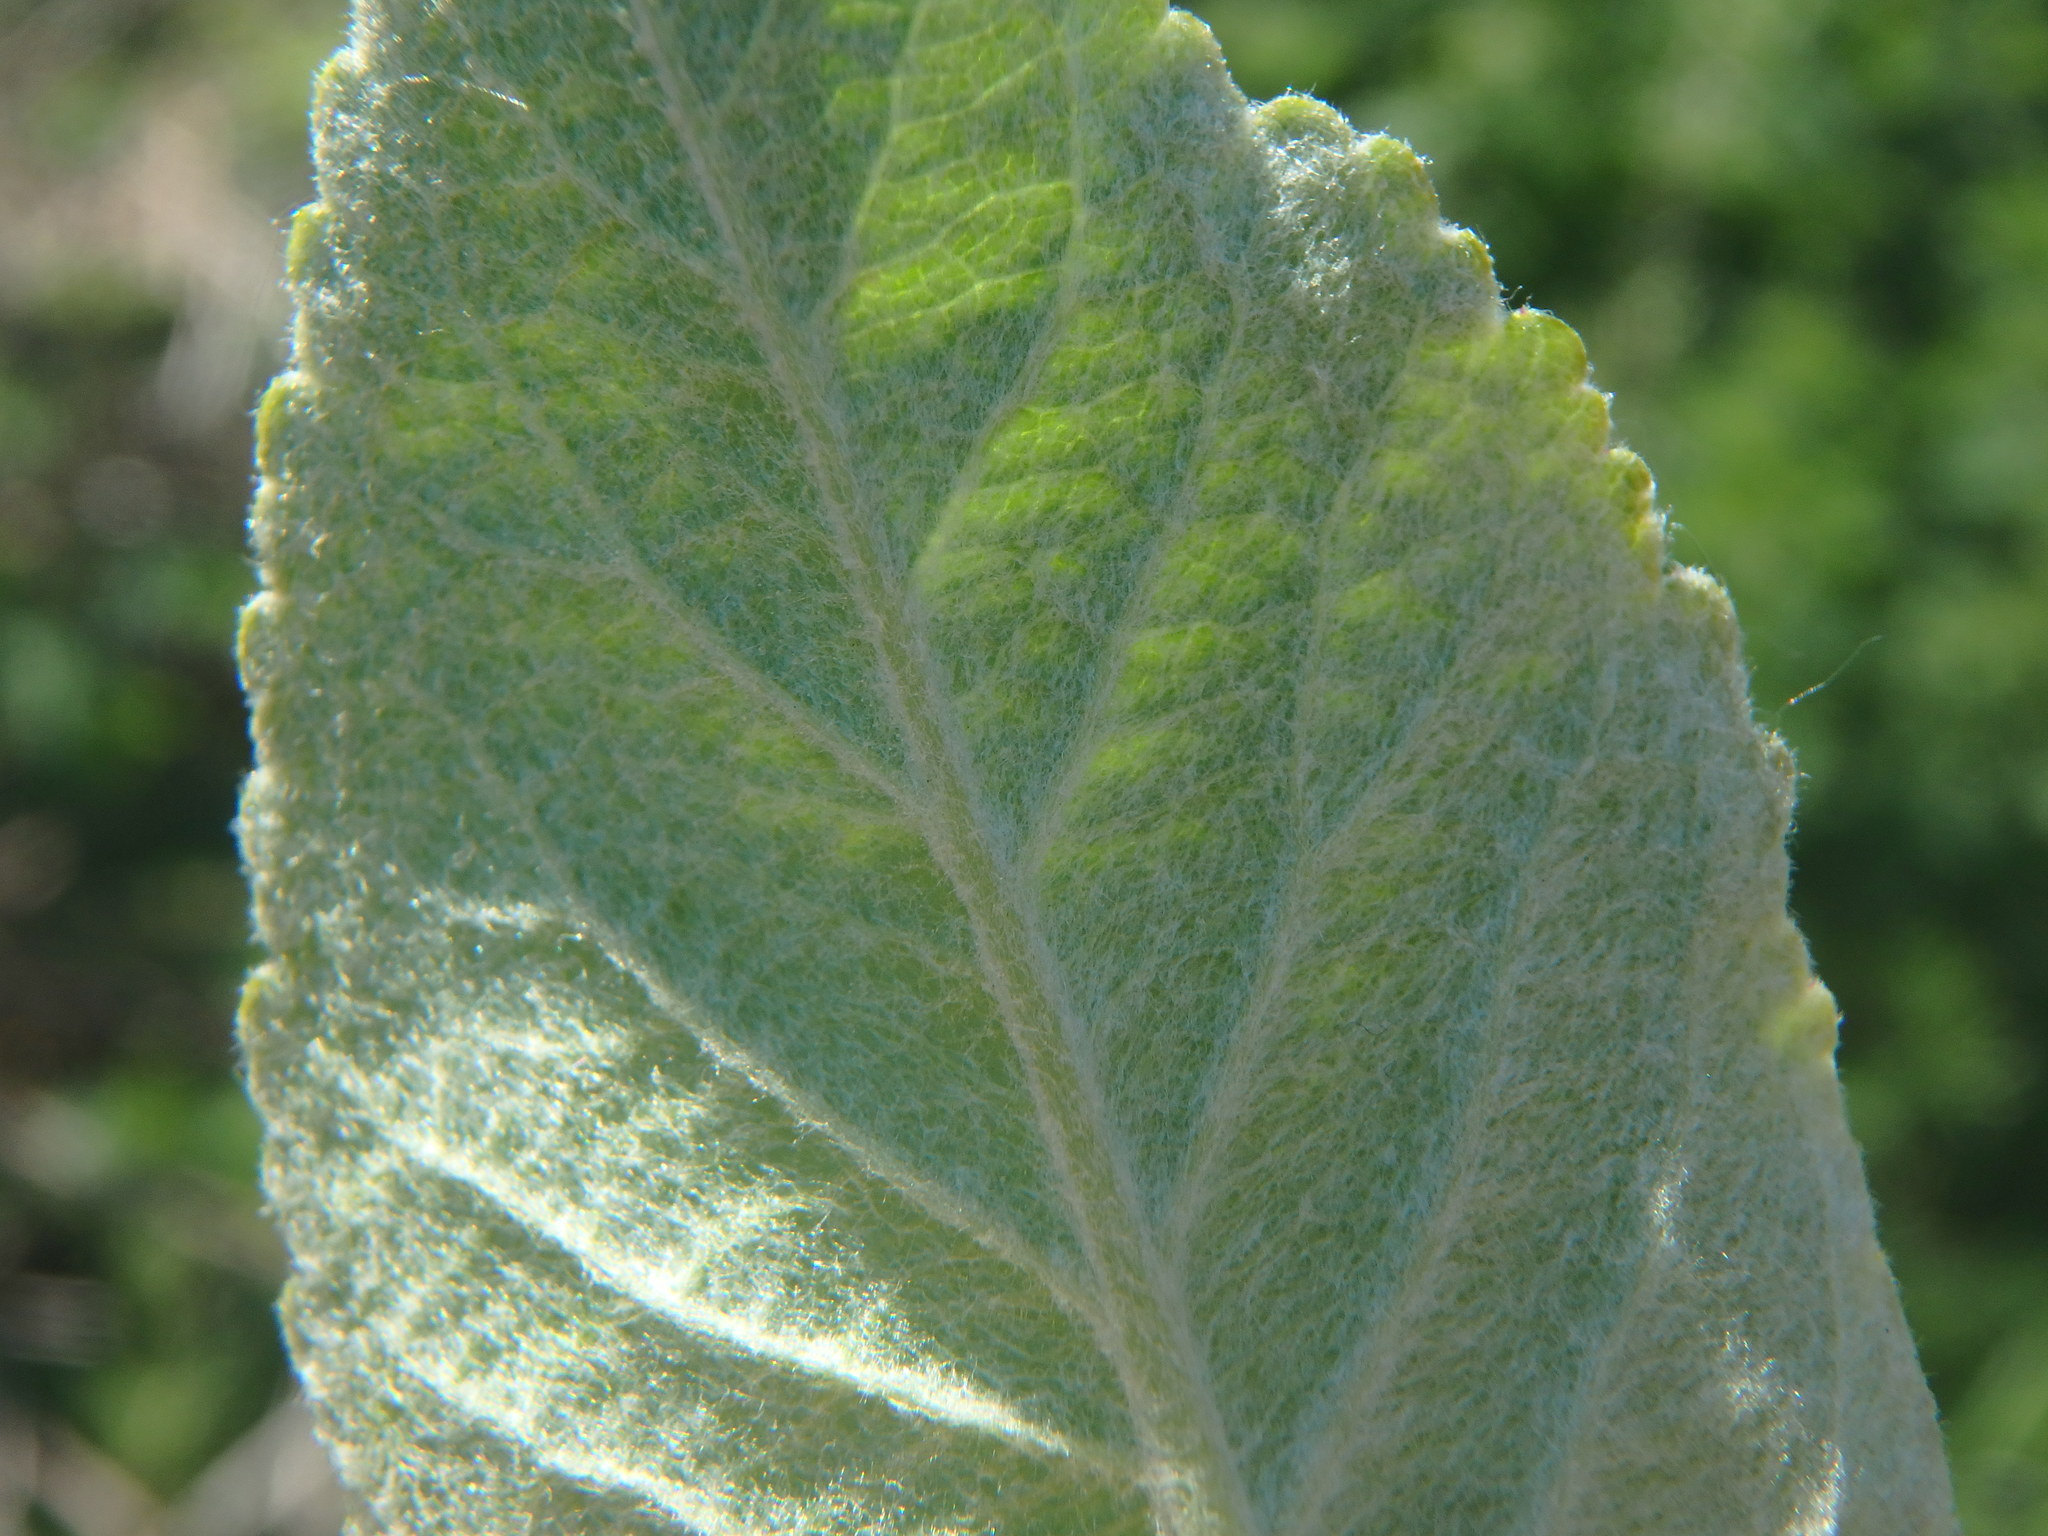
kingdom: Plantae
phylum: Tracheophyta
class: Magnoliopsida
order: Rosales
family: Rosaceae
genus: Malus
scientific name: Malus domestica
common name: Apple
